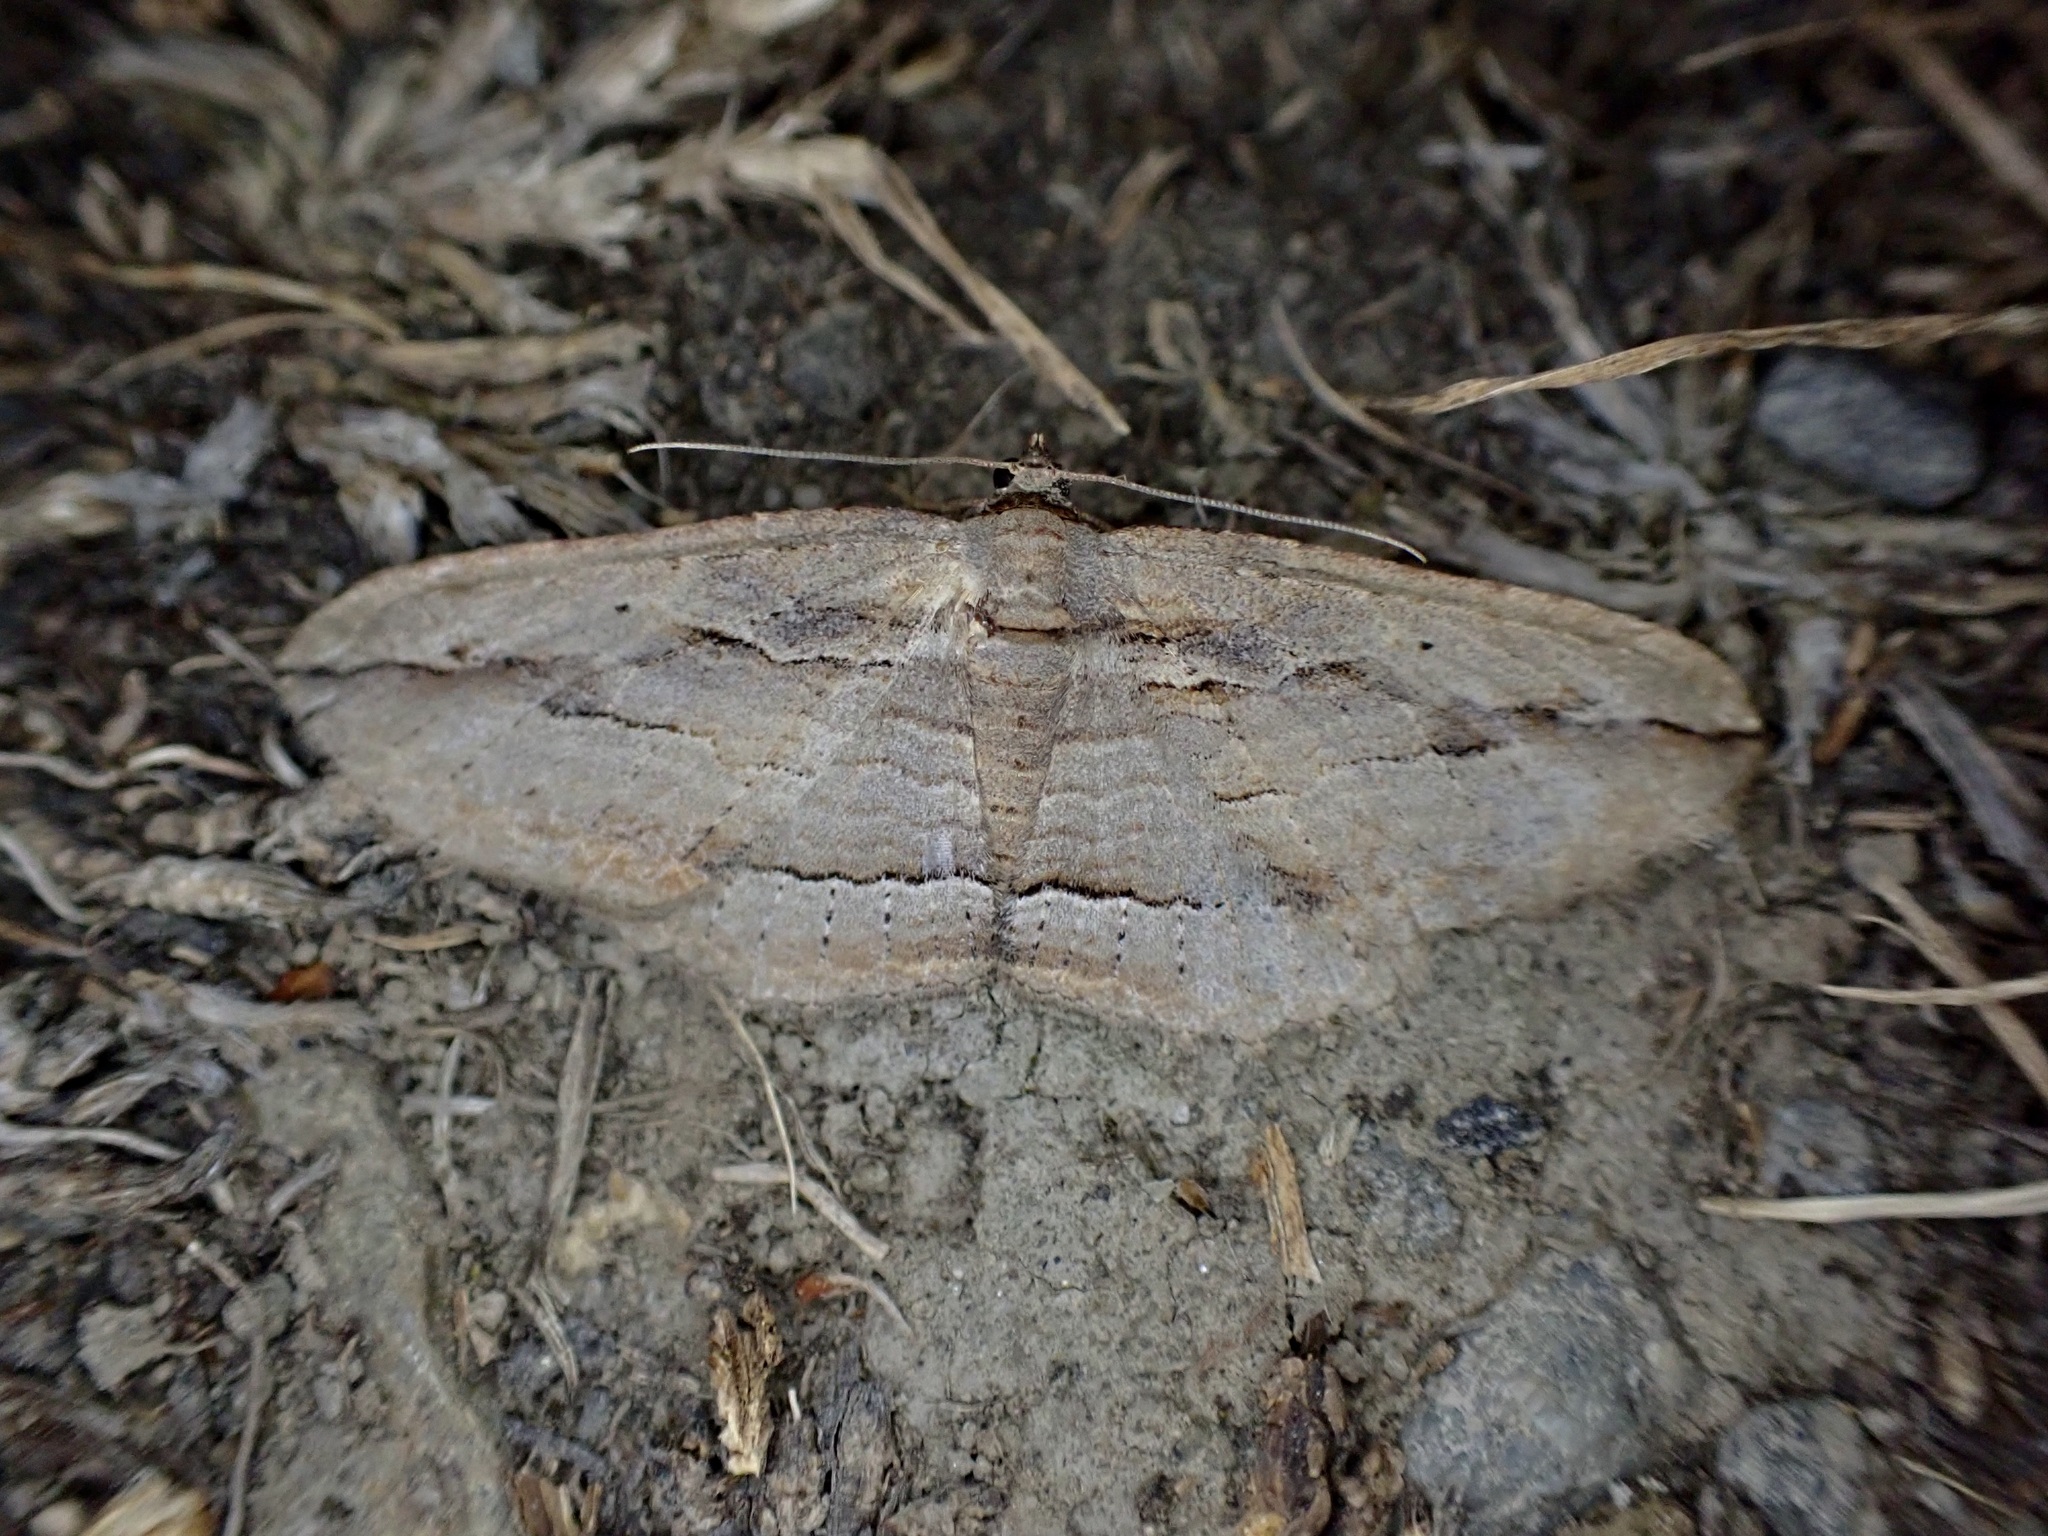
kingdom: Animalia
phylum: Arthropoda
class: Insecta
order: Lepidoptera
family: Geometridae
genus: Austrocidaria
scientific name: Austrocidaria gobiata
